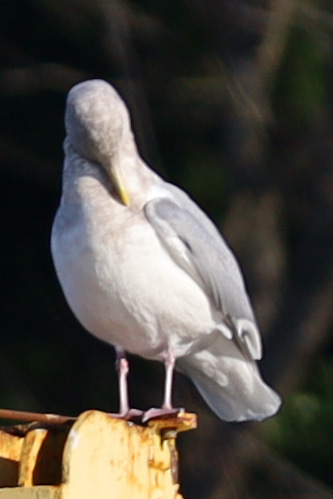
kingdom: Animalia
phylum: Chordata
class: Aves
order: Charadriiformes
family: Laridae
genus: Larus
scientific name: Larus
